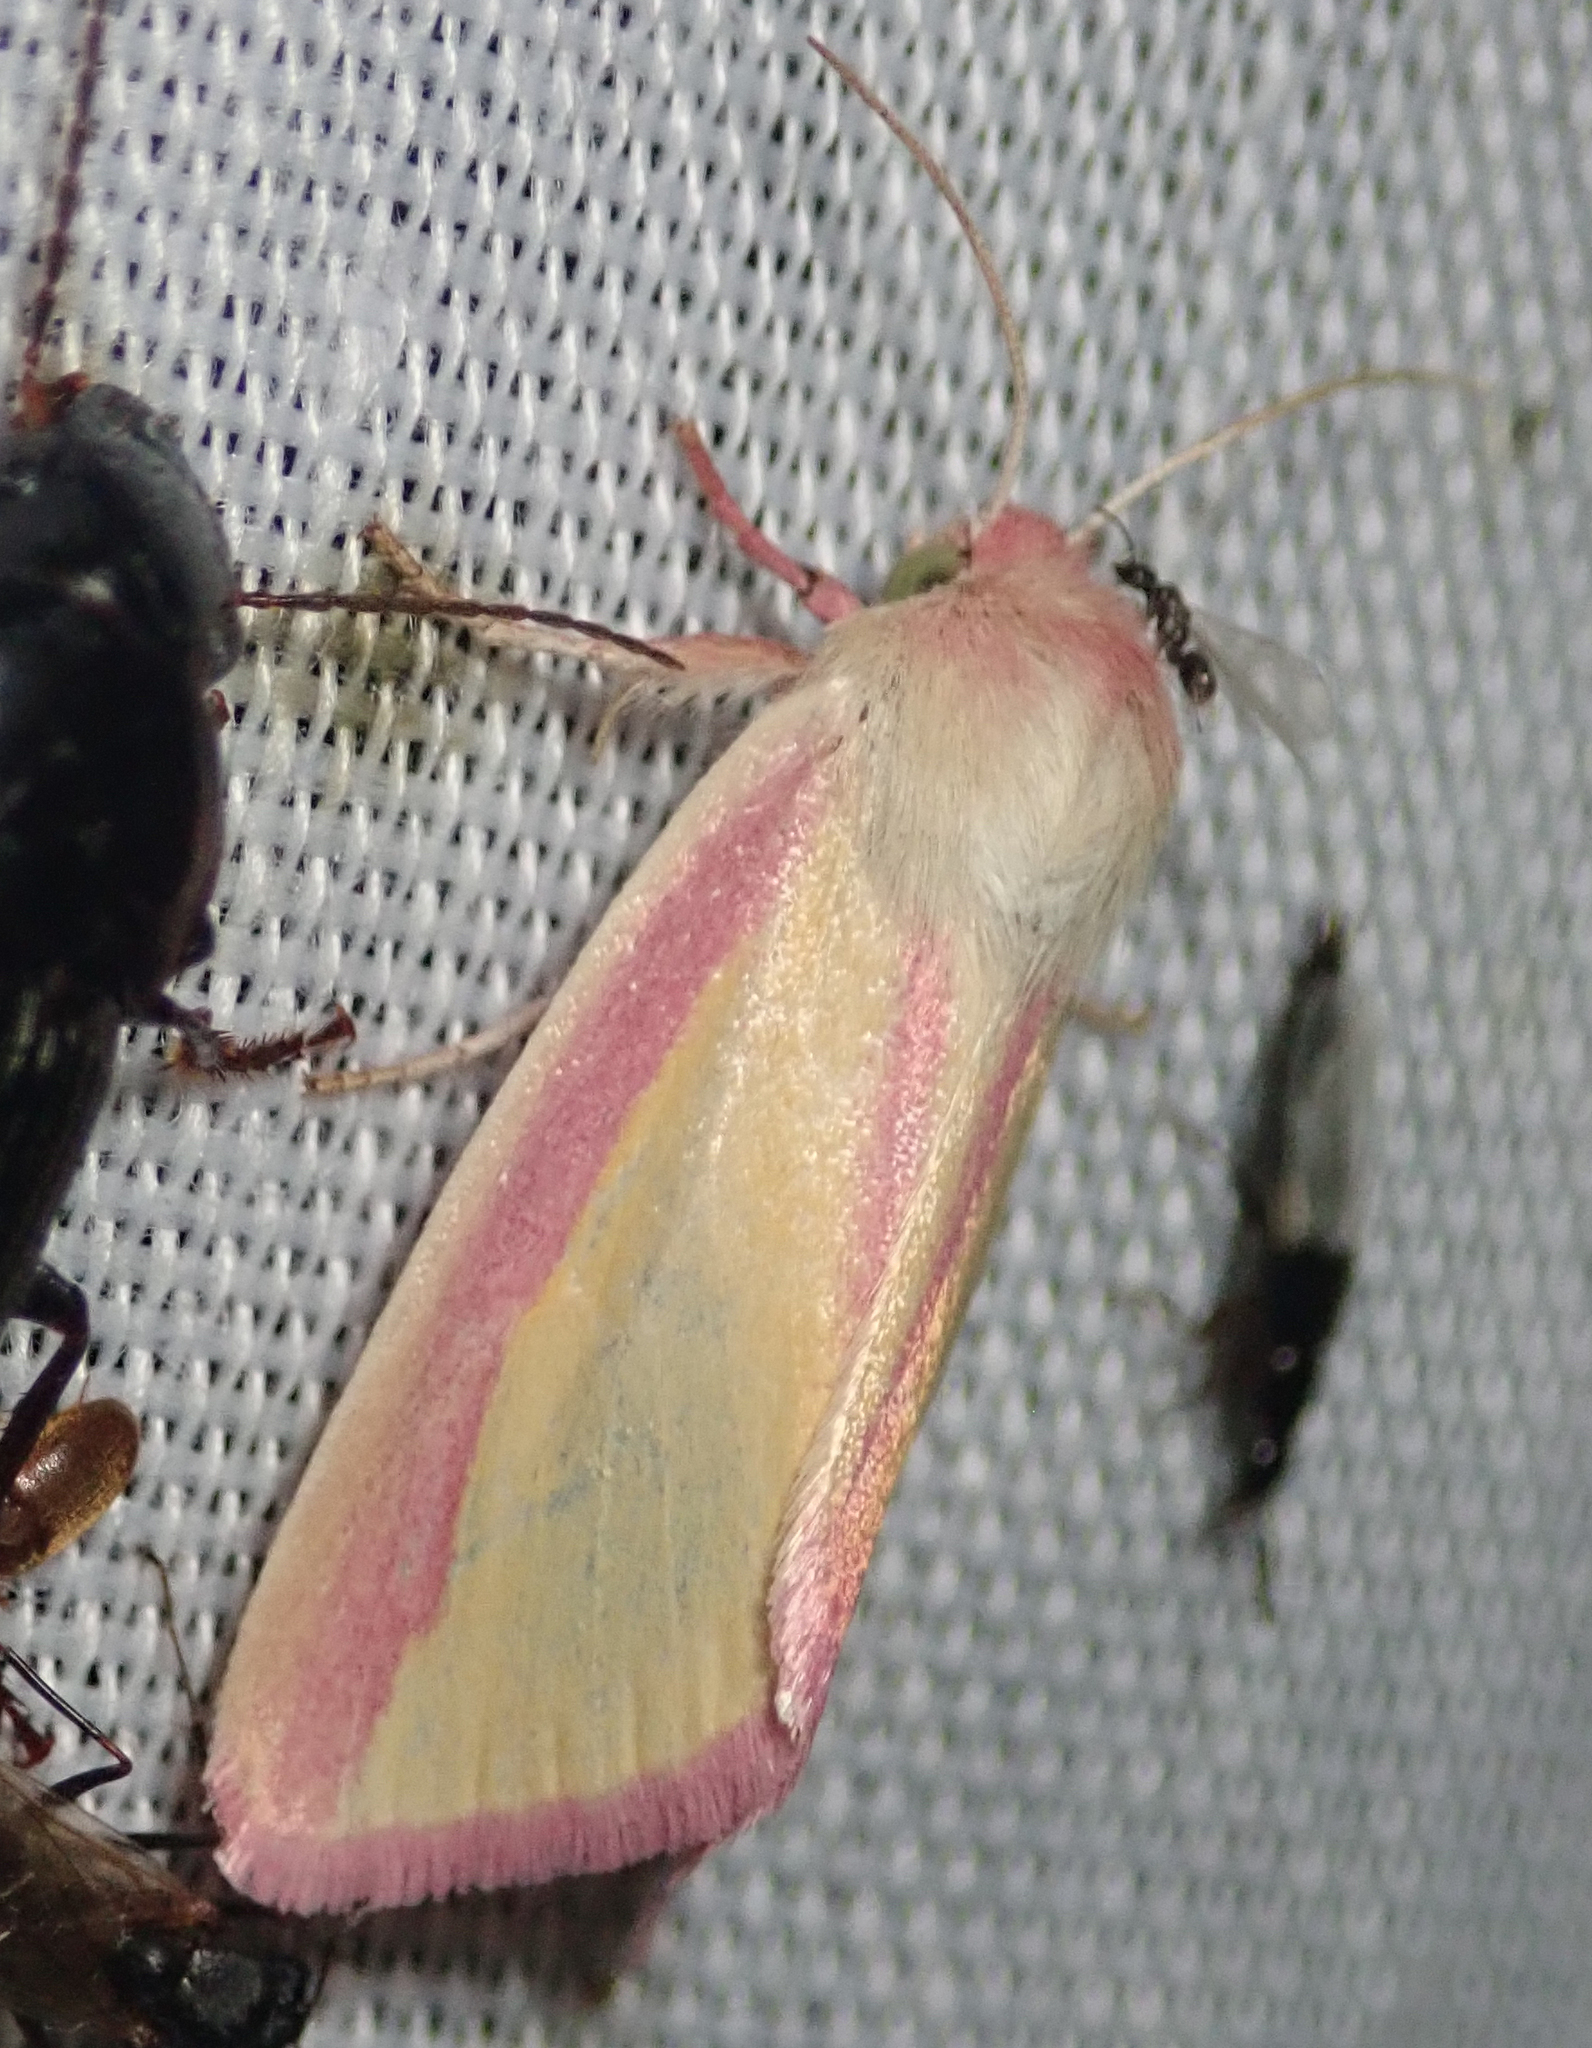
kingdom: Animalia
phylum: Arthropoda
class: Insecta
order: Lepidoptera
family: Noctuidae
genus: Heliothis
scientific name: Heliothis
